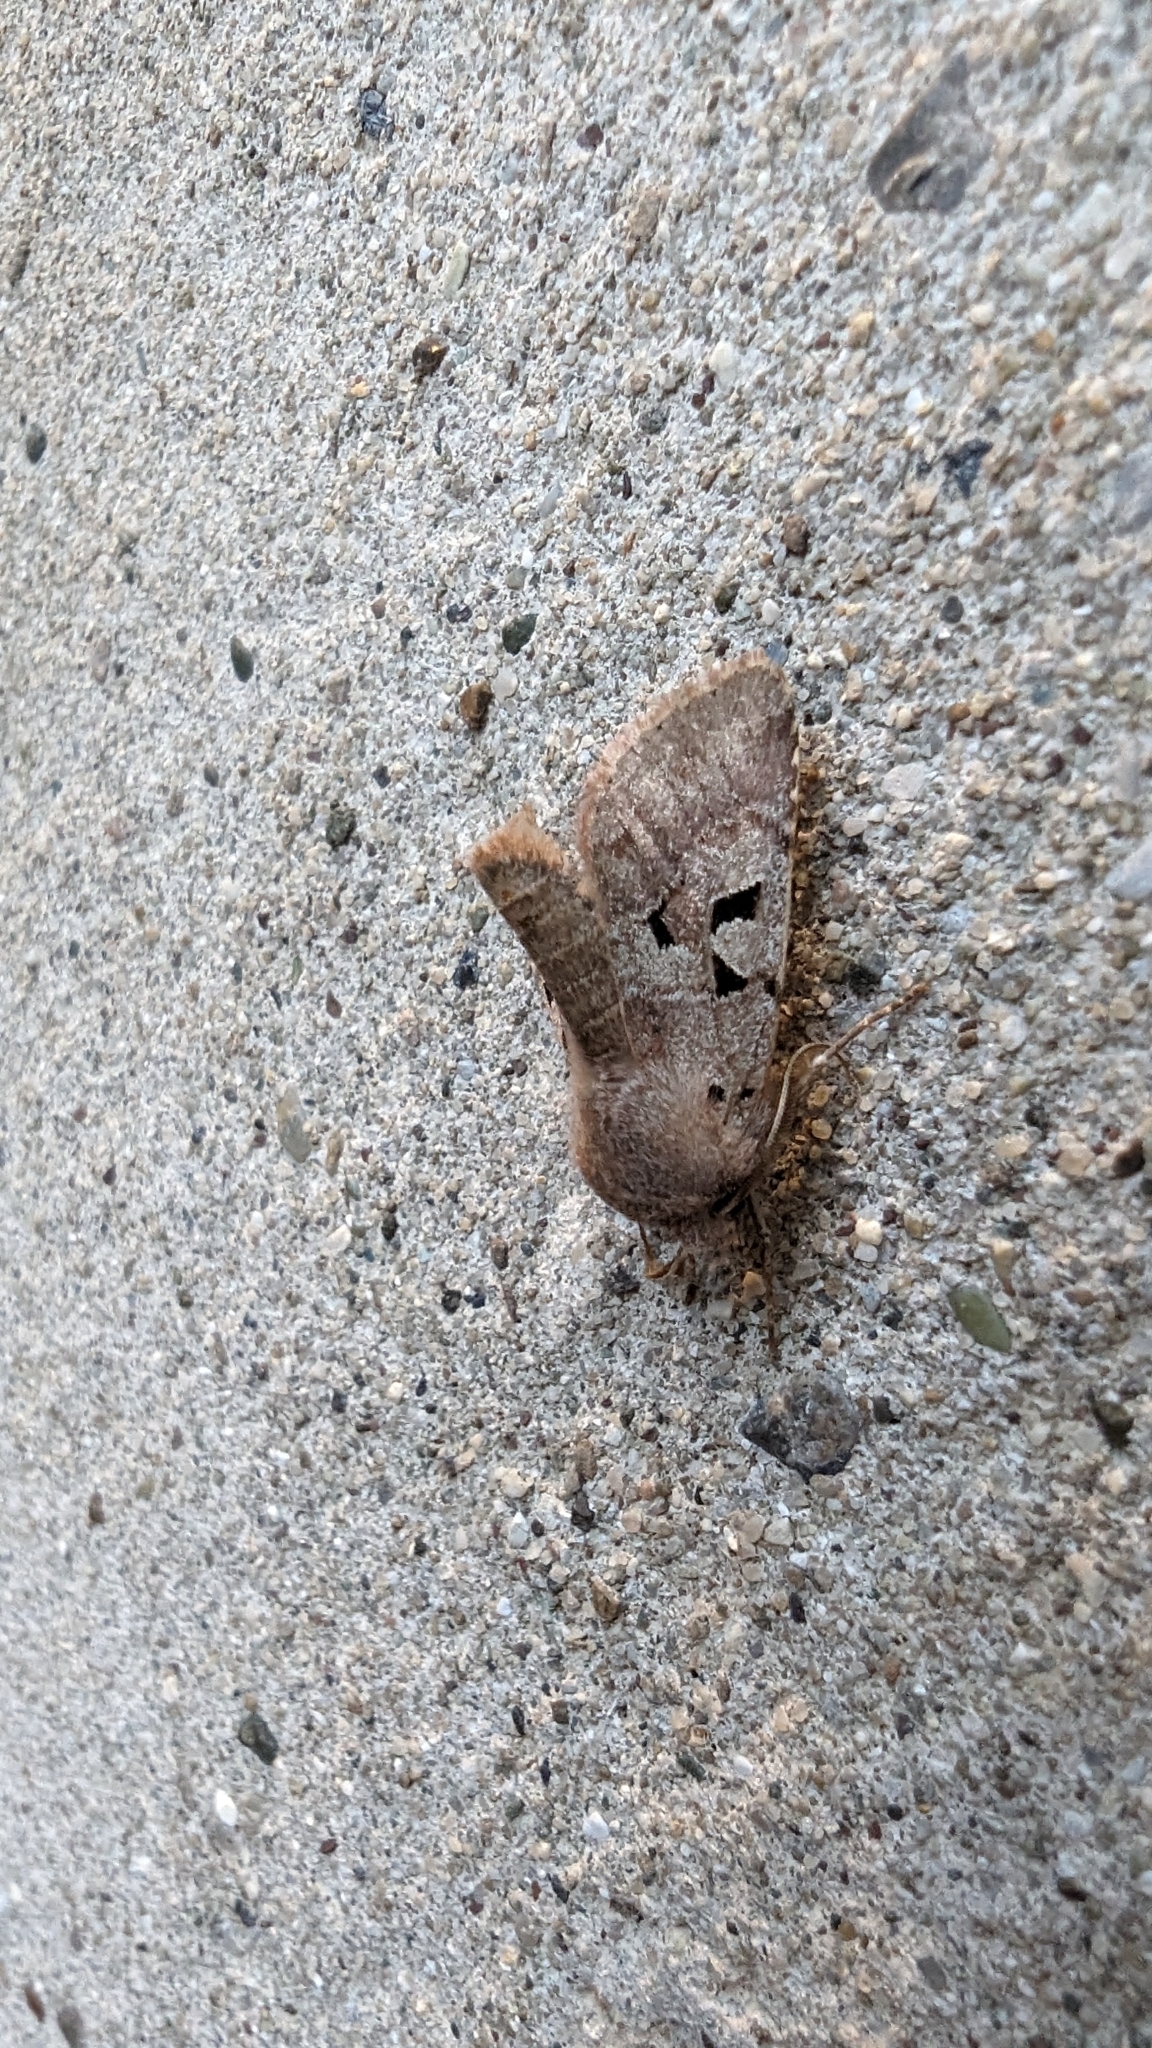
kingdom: Animalia
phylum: Arthropoda
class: Insecta
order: Lepidoptera
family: Noctuidae
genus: Orthosia
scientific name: Orthosia gothica
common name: Hebrew character
